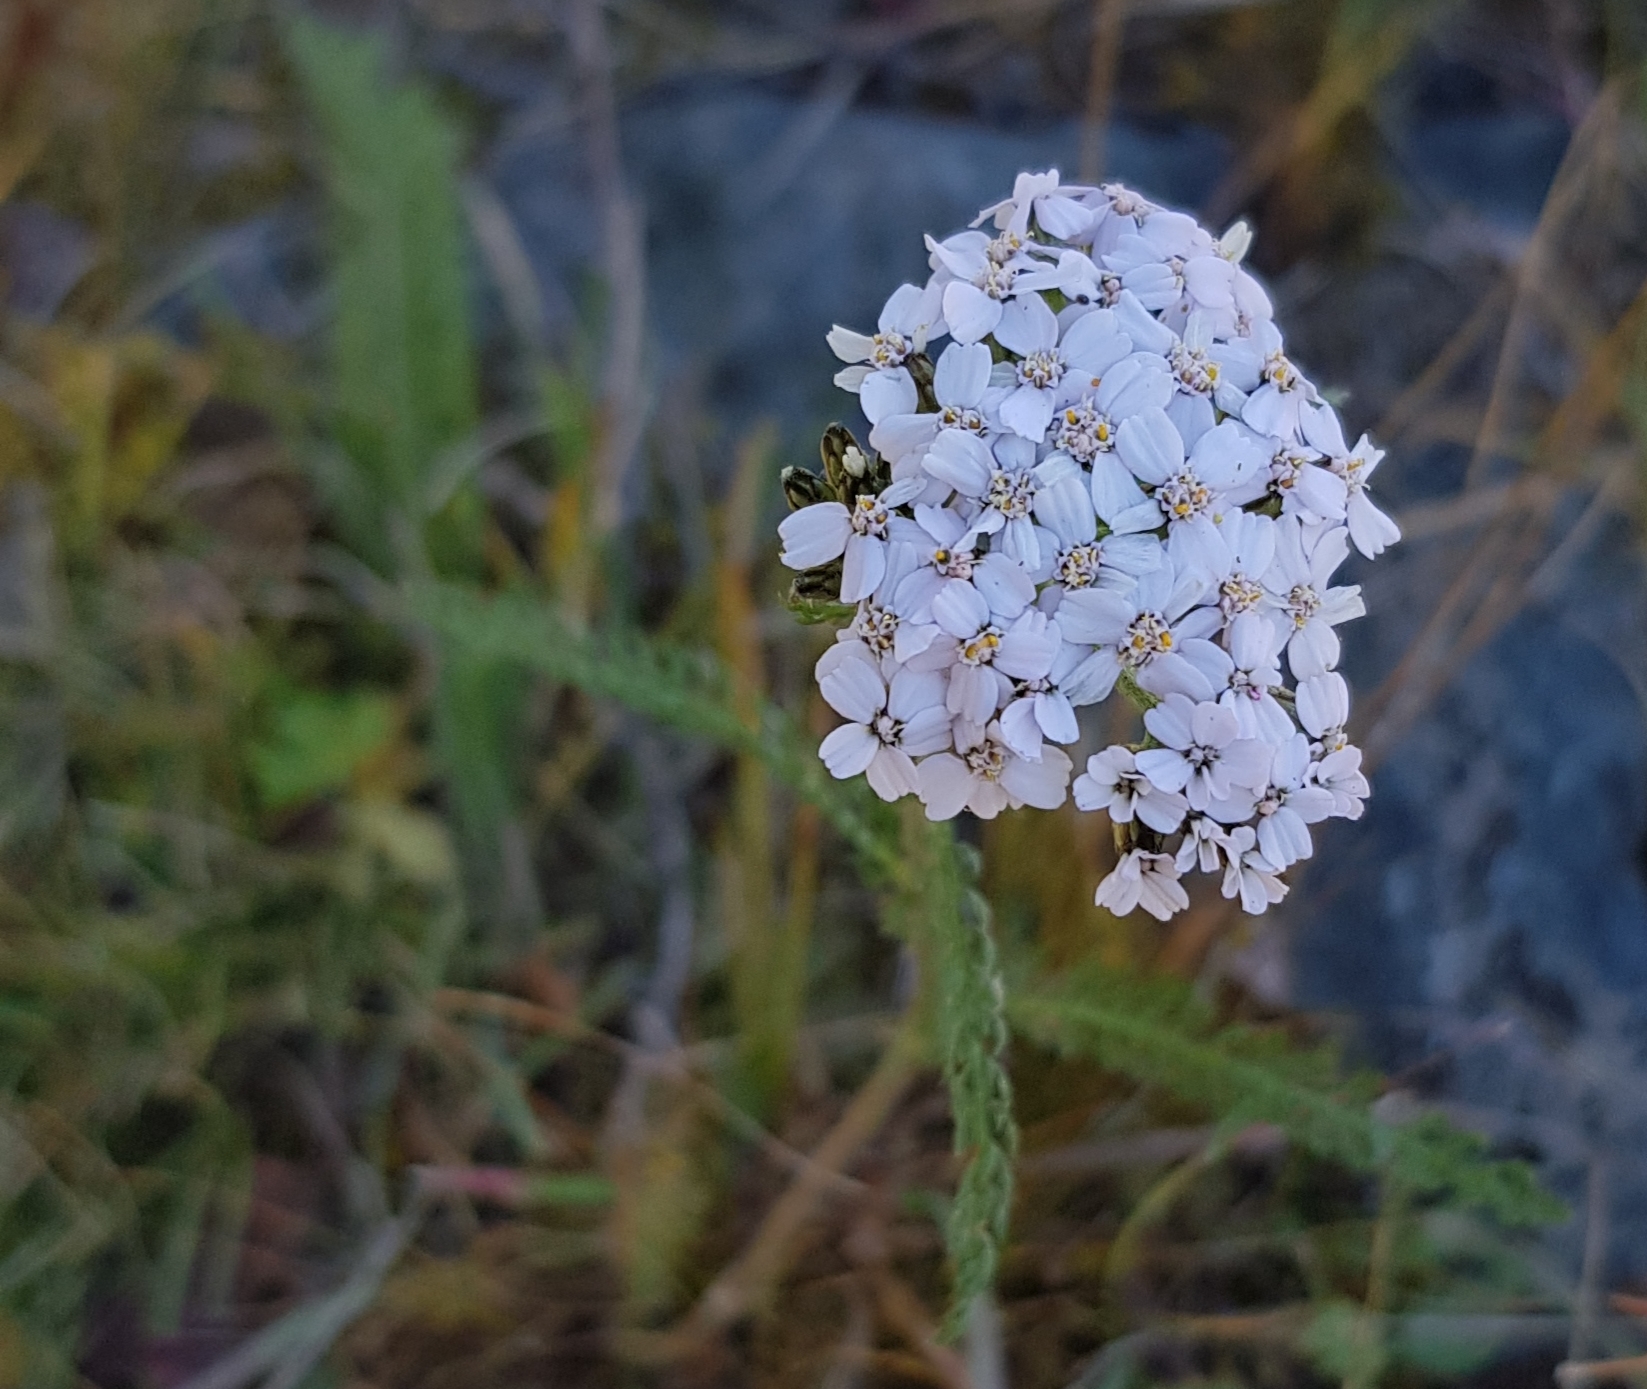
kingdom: Plantae
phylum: Tracheophyta
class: Magnoliopsida
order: Asterales
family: Asteraceae
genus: Achillea
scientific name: Achillea asiatica
